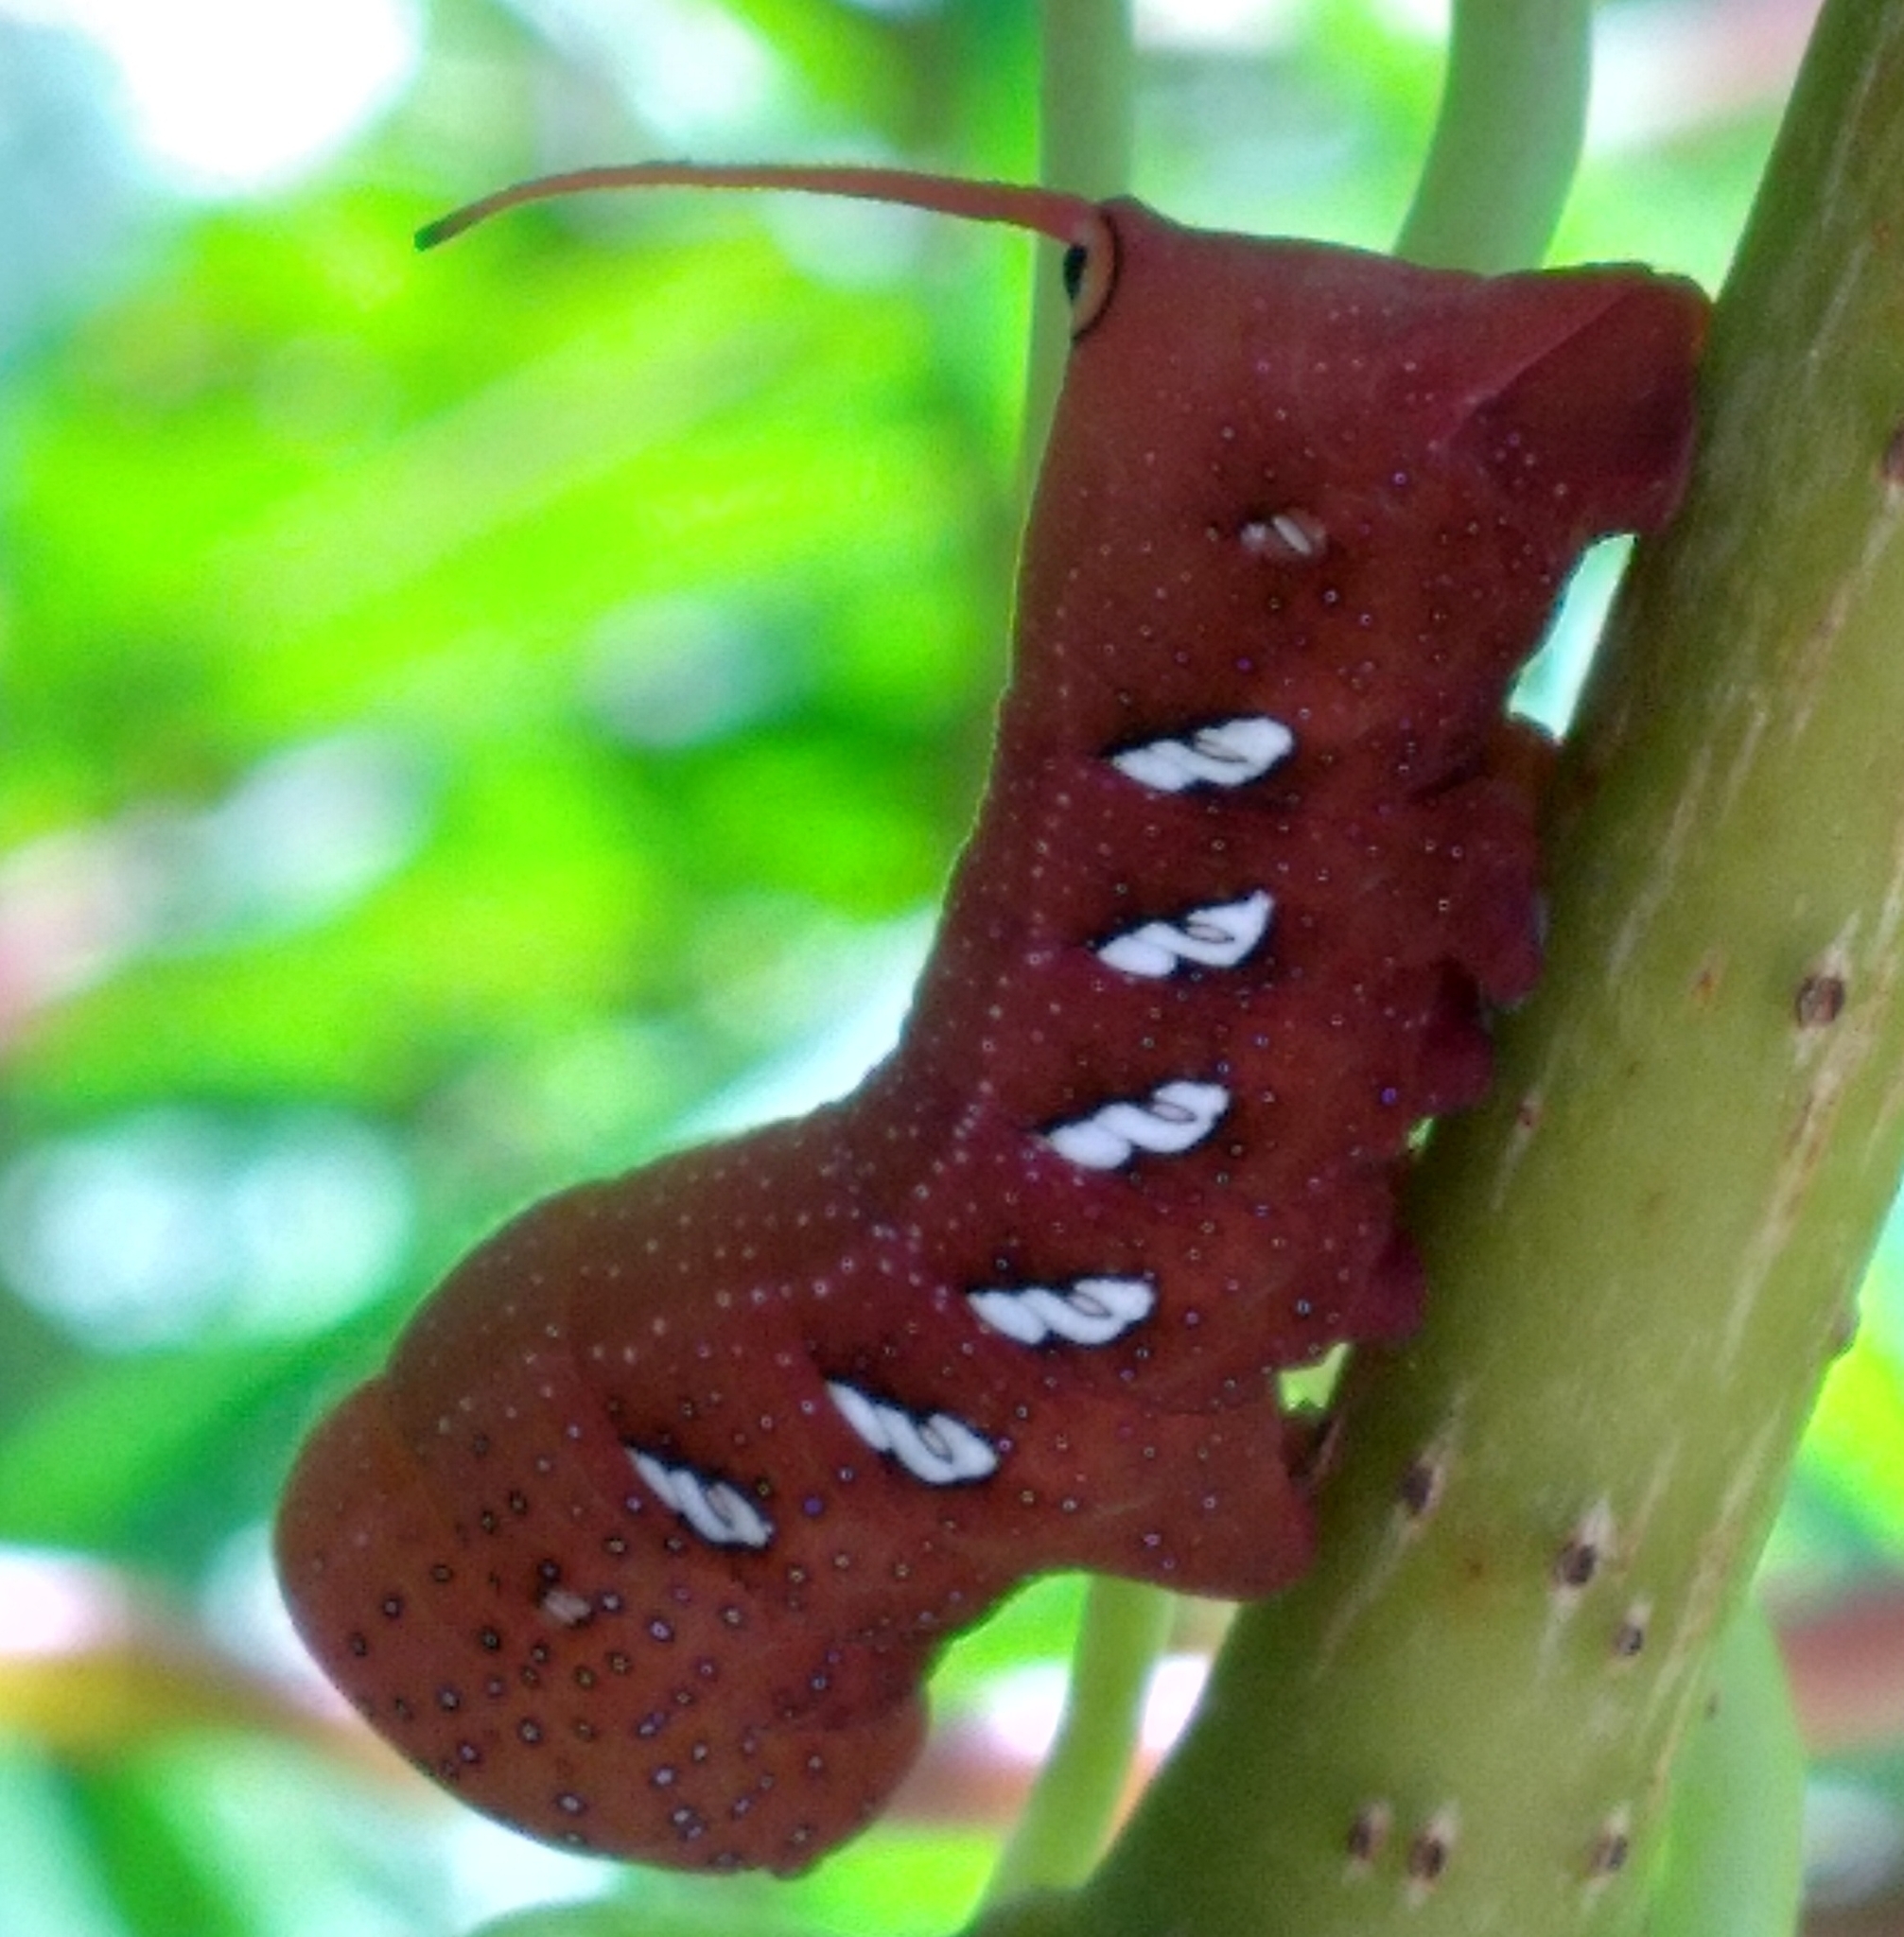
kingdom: Animalia
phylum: Arthropoda
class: Insecta
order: Lepidoptera
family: Sphingidae
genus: Eumorpha
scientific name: Eumorpha achemon
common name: Achemon sphinx
